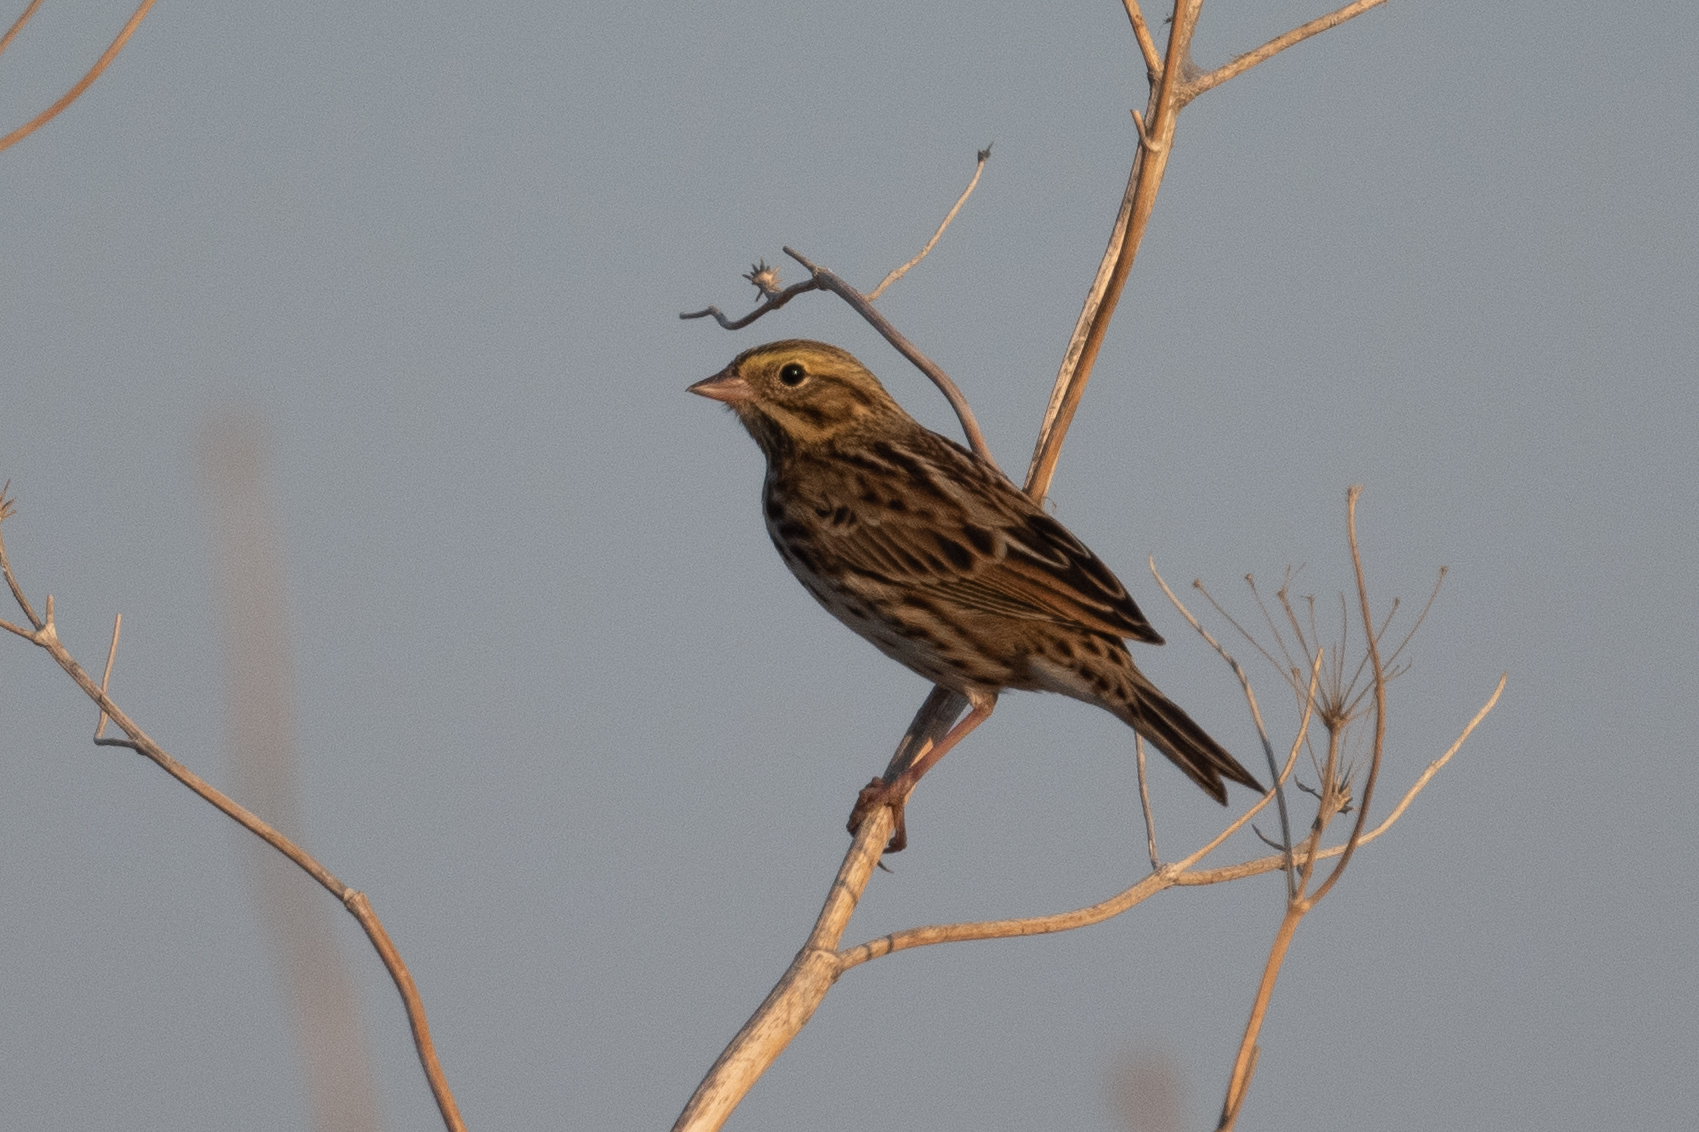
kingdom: Animalia
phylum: Chordata
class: Aves
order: Passeriformes
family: Passerellidae
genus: Passerculus
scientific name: Passerculus sandwichensis
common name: Savannah sparrow
